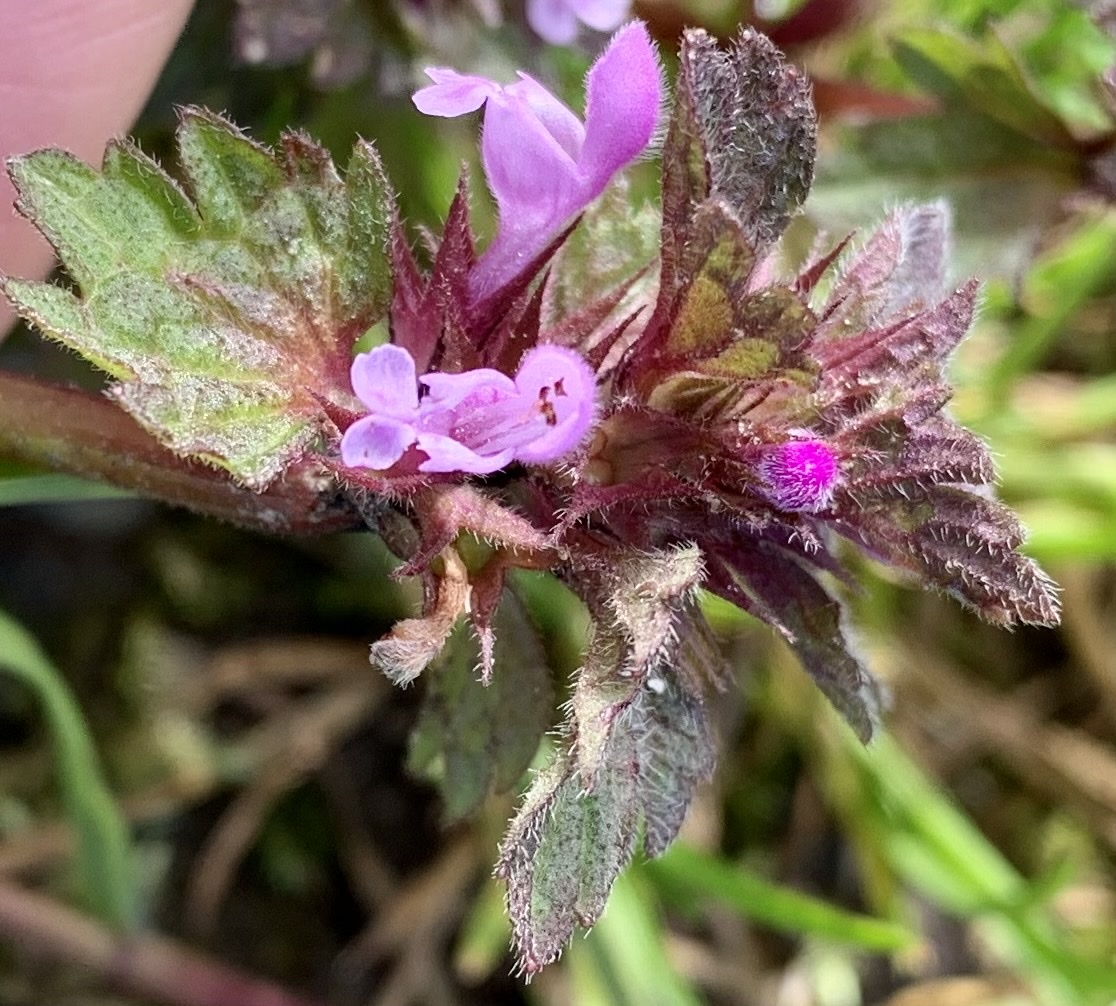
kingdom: Plantae
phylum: Tracheophyta
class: Magnoliopsida
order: Lamiales
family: Lamiaceae
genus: Lamium
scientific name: Lamium hybridum
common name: Cut-leaved dead-nettle
